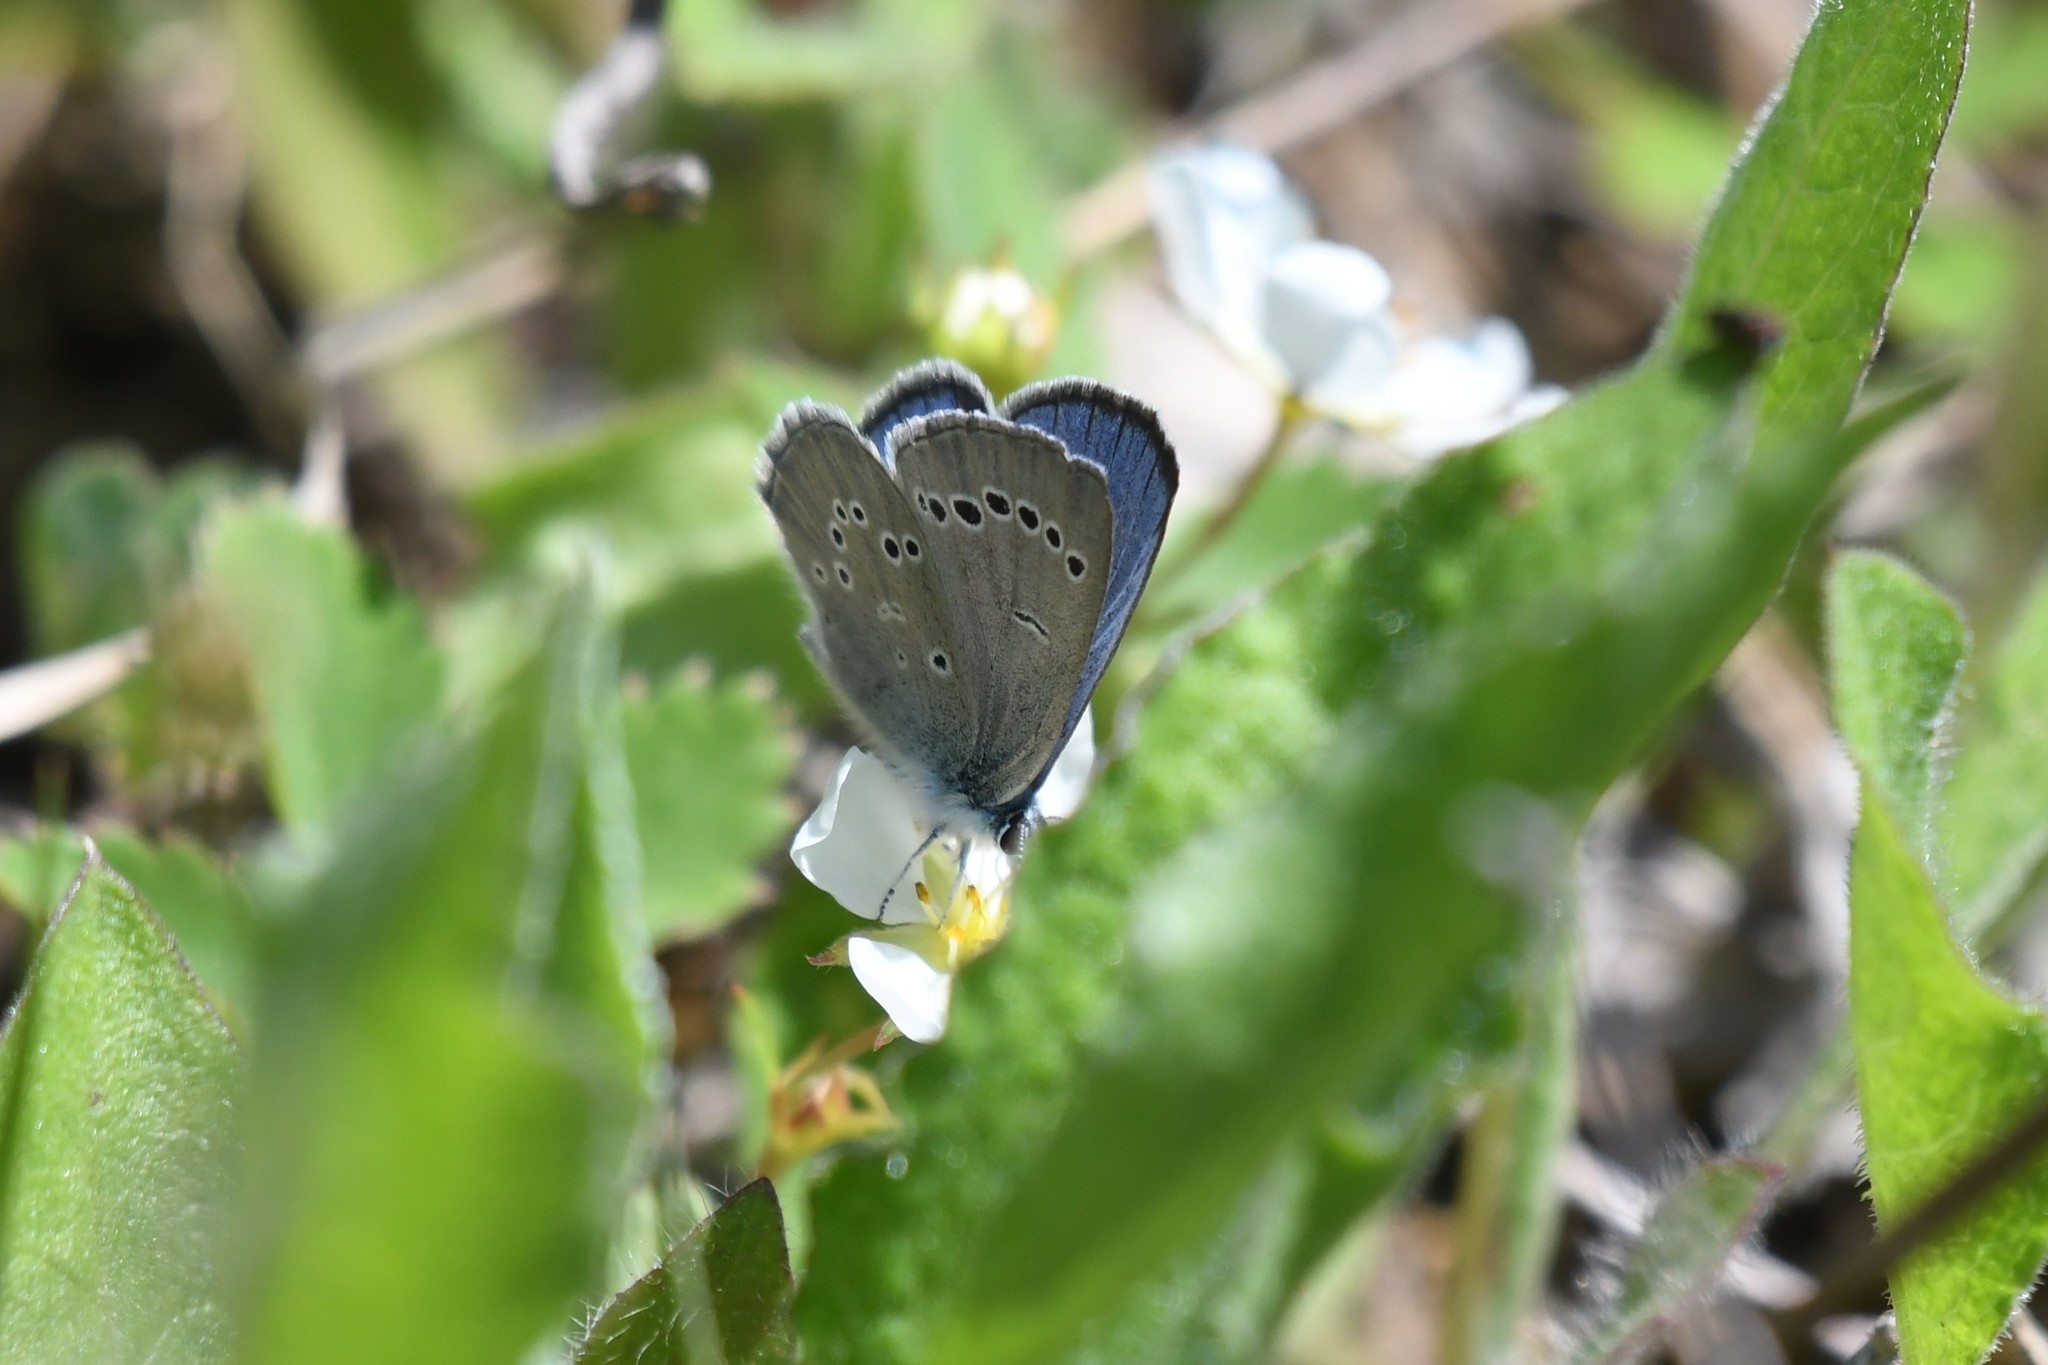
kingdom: Animalia
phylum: Arthropoda
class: Insecta
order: Lepidoptera
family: Lycaenidae
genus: Glaucopsyche
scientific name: Glaucopsyche lygdamus
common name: Silvery blue
